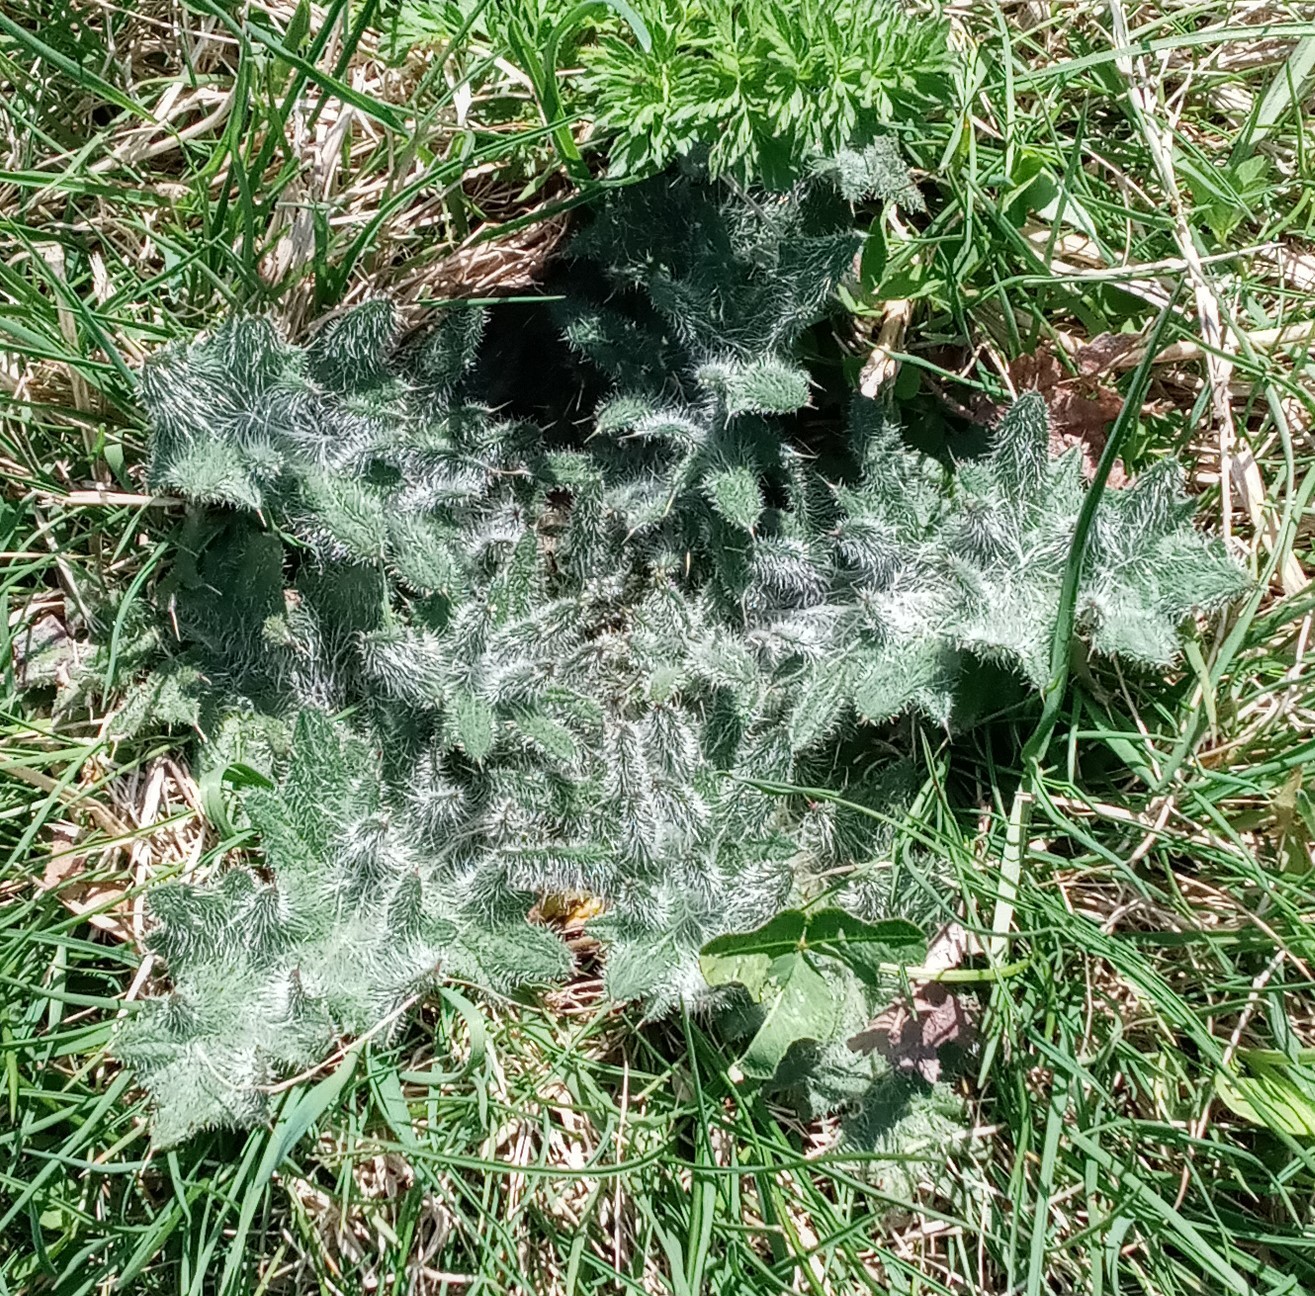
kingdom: Plantae
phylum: Tracheophyta
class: Magnoliopsida
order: Asterales
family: Asteraceae
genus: Cirsium
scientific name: Cirsium vulgare
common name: Bull thistle
